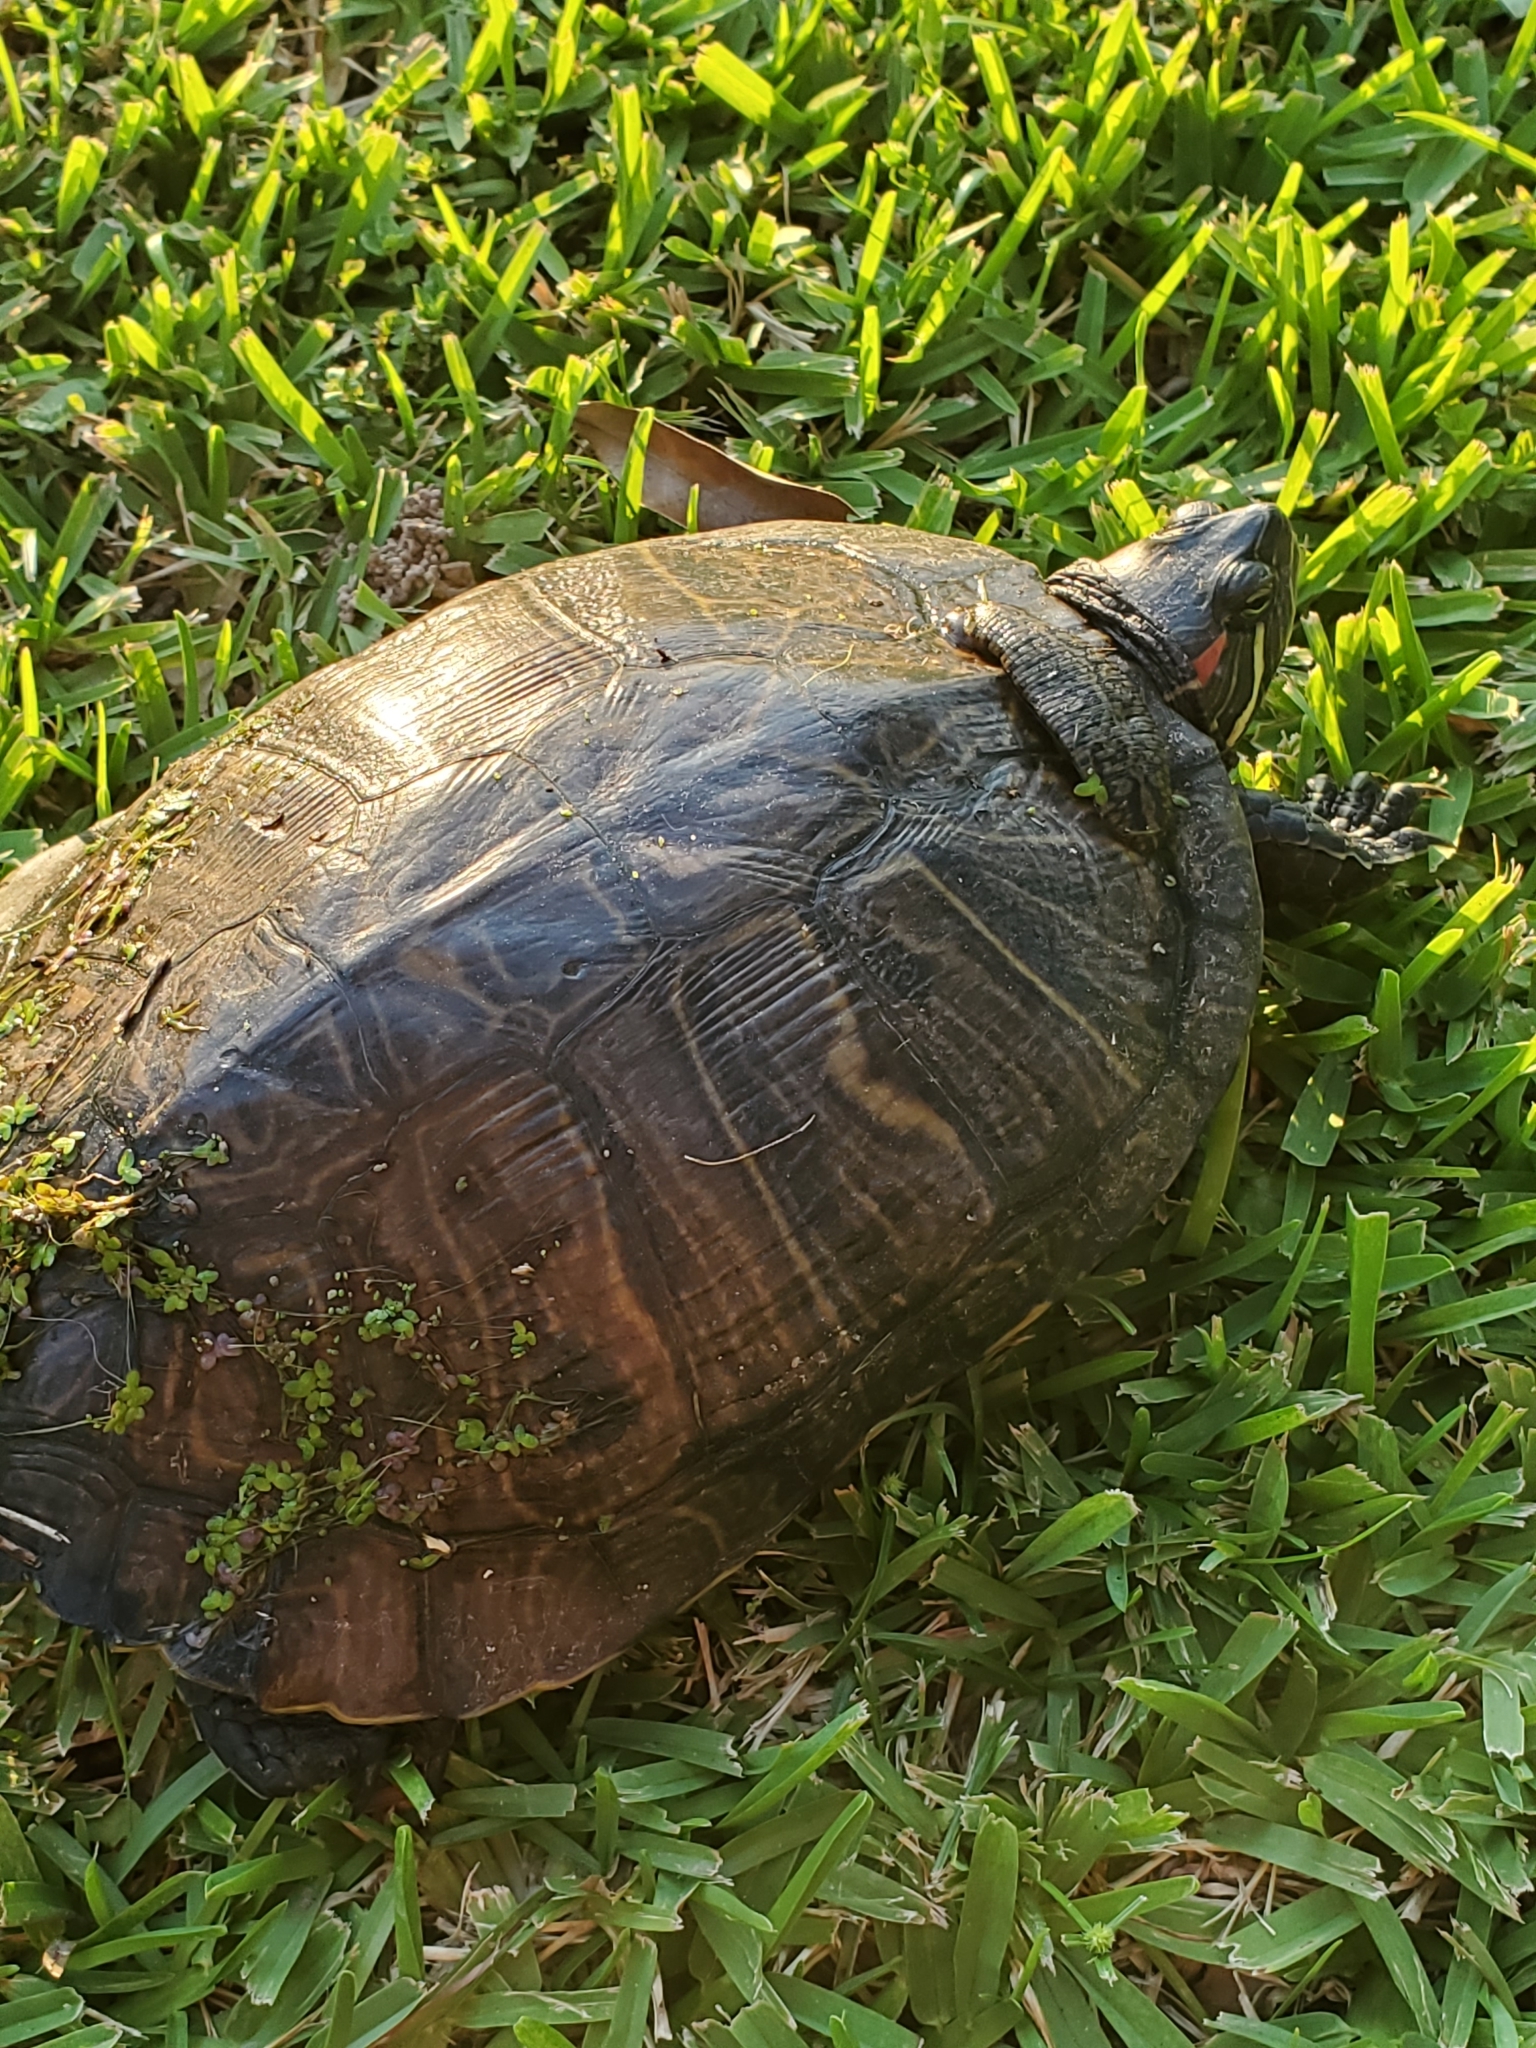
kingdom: Animalia
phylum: Chordata
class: Testudines
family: Emydidae
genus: Trachemys
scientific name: Trachemys scripta
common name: Slider
